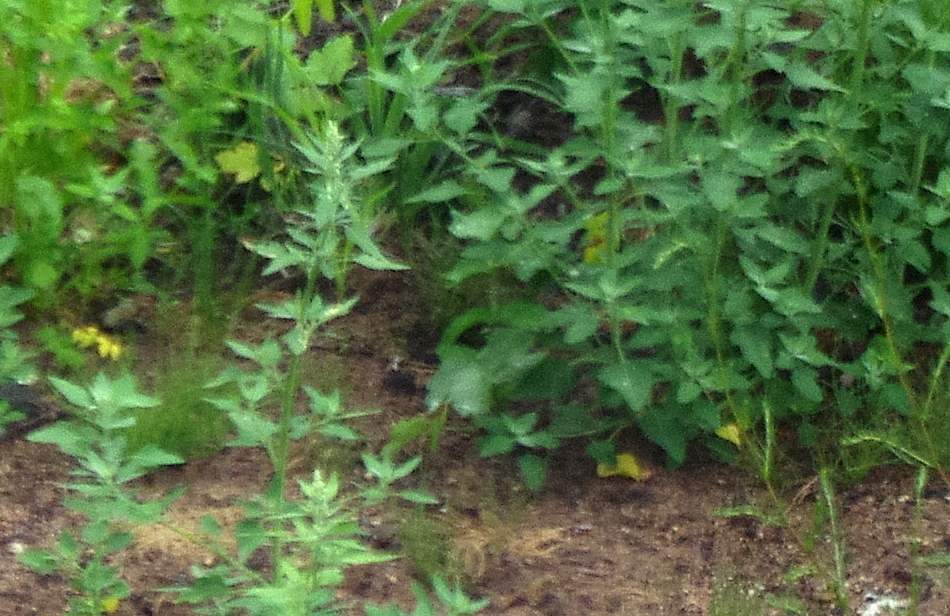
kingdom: Plantae
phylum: Tracheophyta
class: Magnoliopsida
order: Caryophyllales
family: Amaranthaceae
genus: Chenopodium
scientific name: Chenopodium album
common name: Fat-hen
